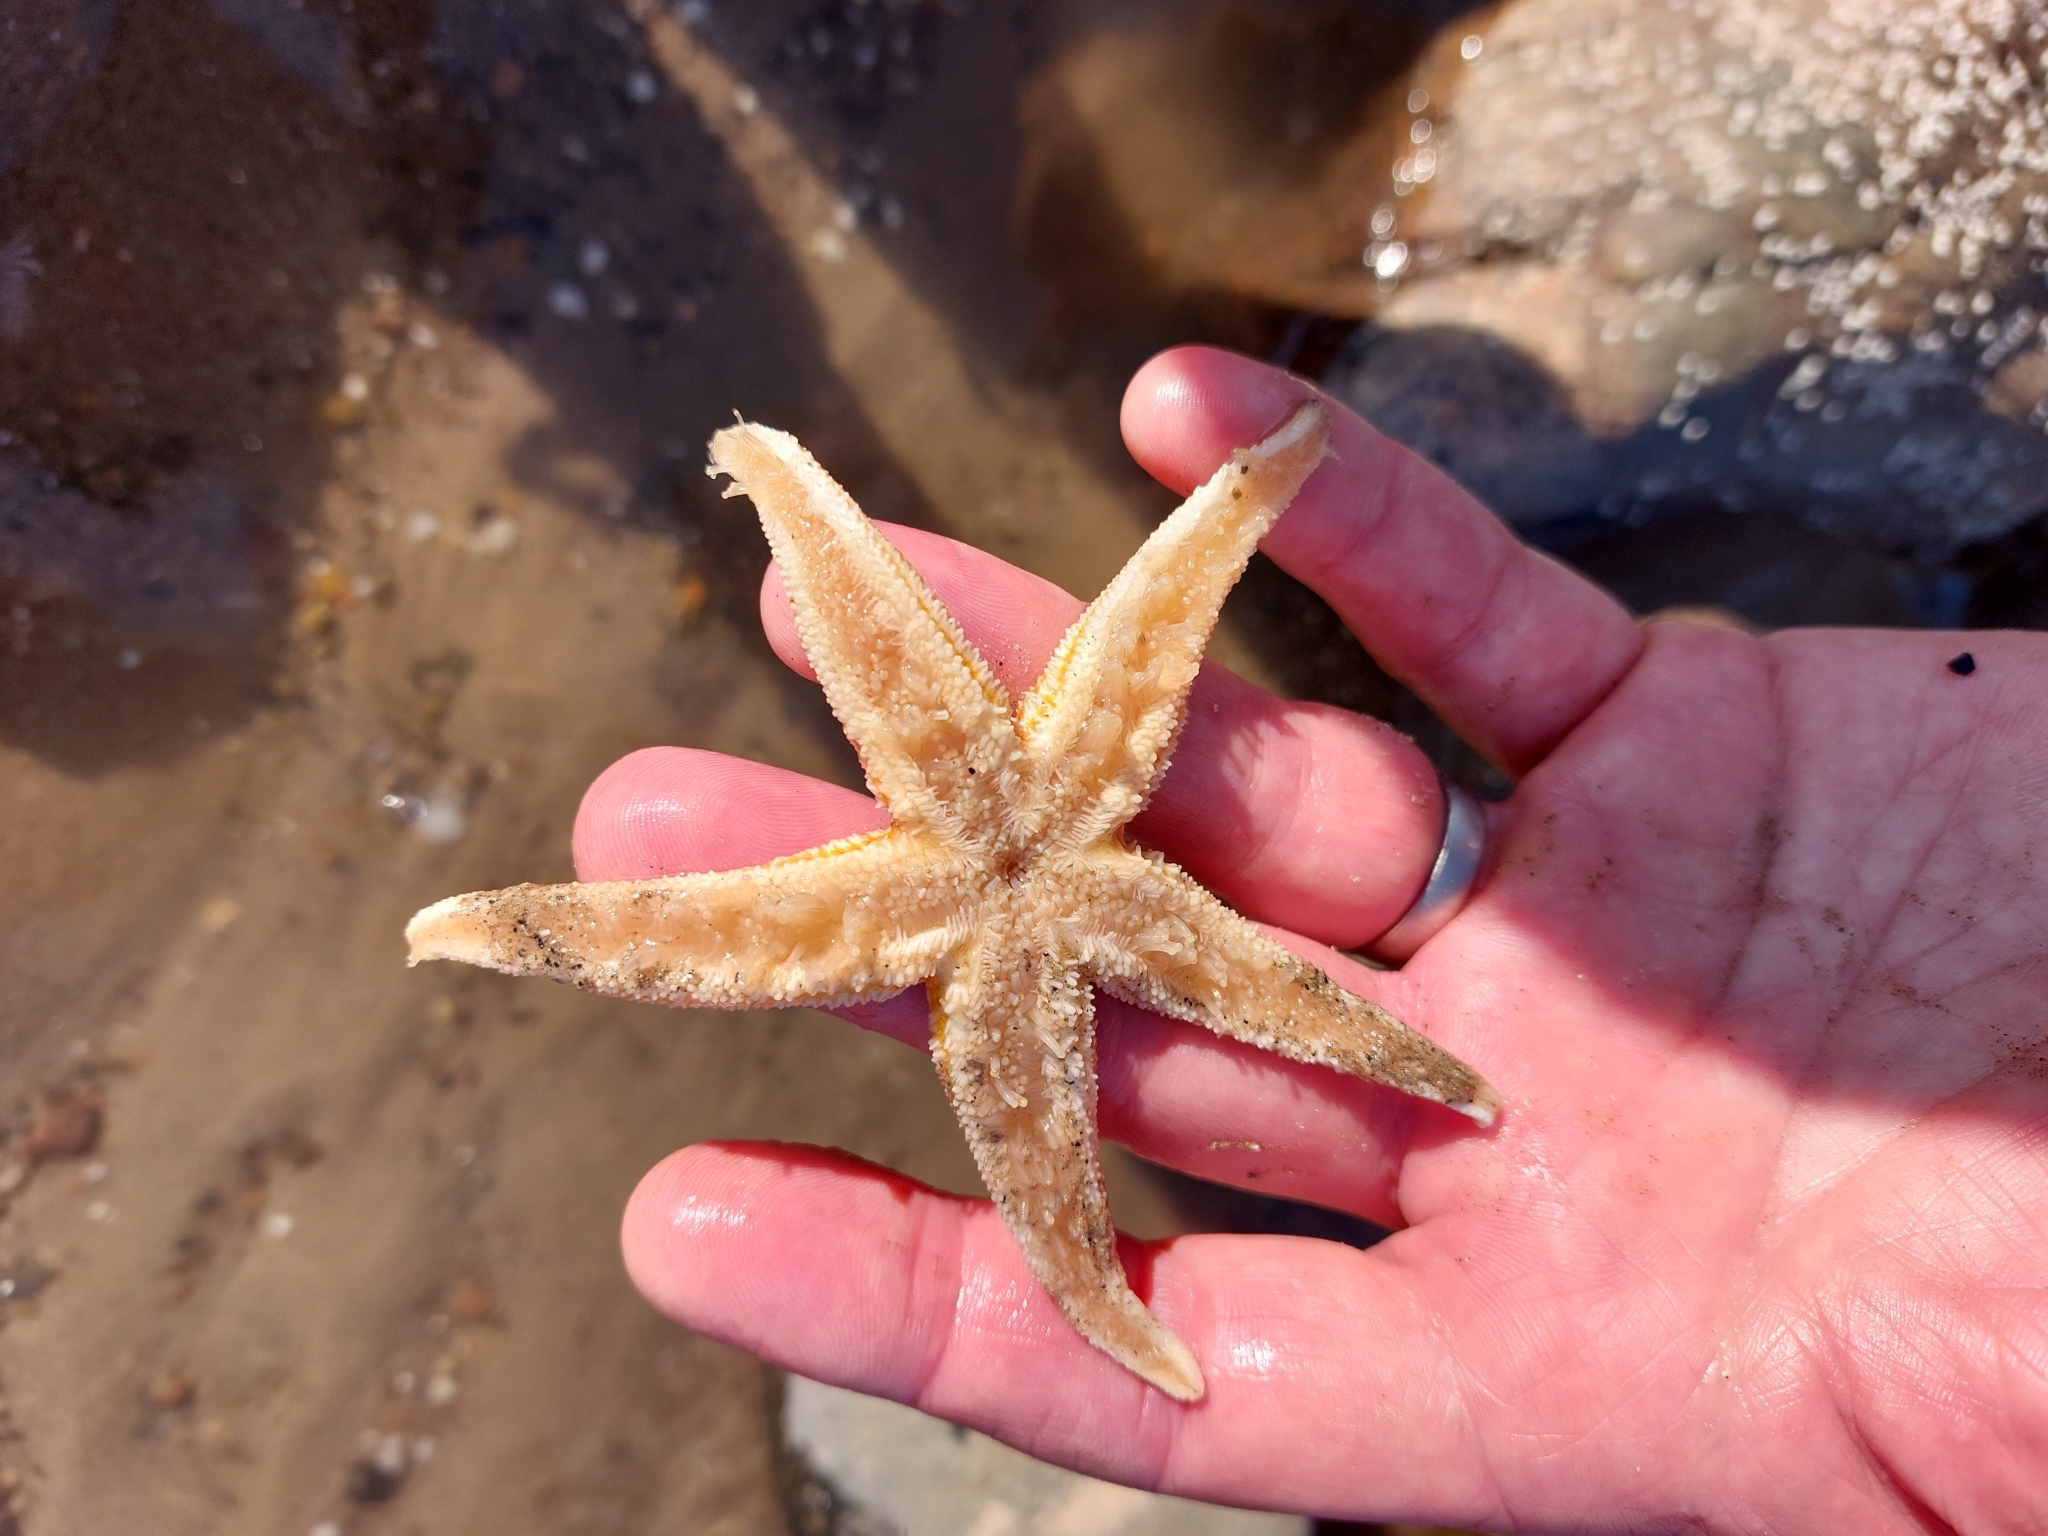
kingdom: Animalia
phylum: Echinodermata
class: Asteroidea
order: Forcipulatida
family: Asteriidae
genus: Asterias
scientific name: Asterias rubens
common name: Common starfish
